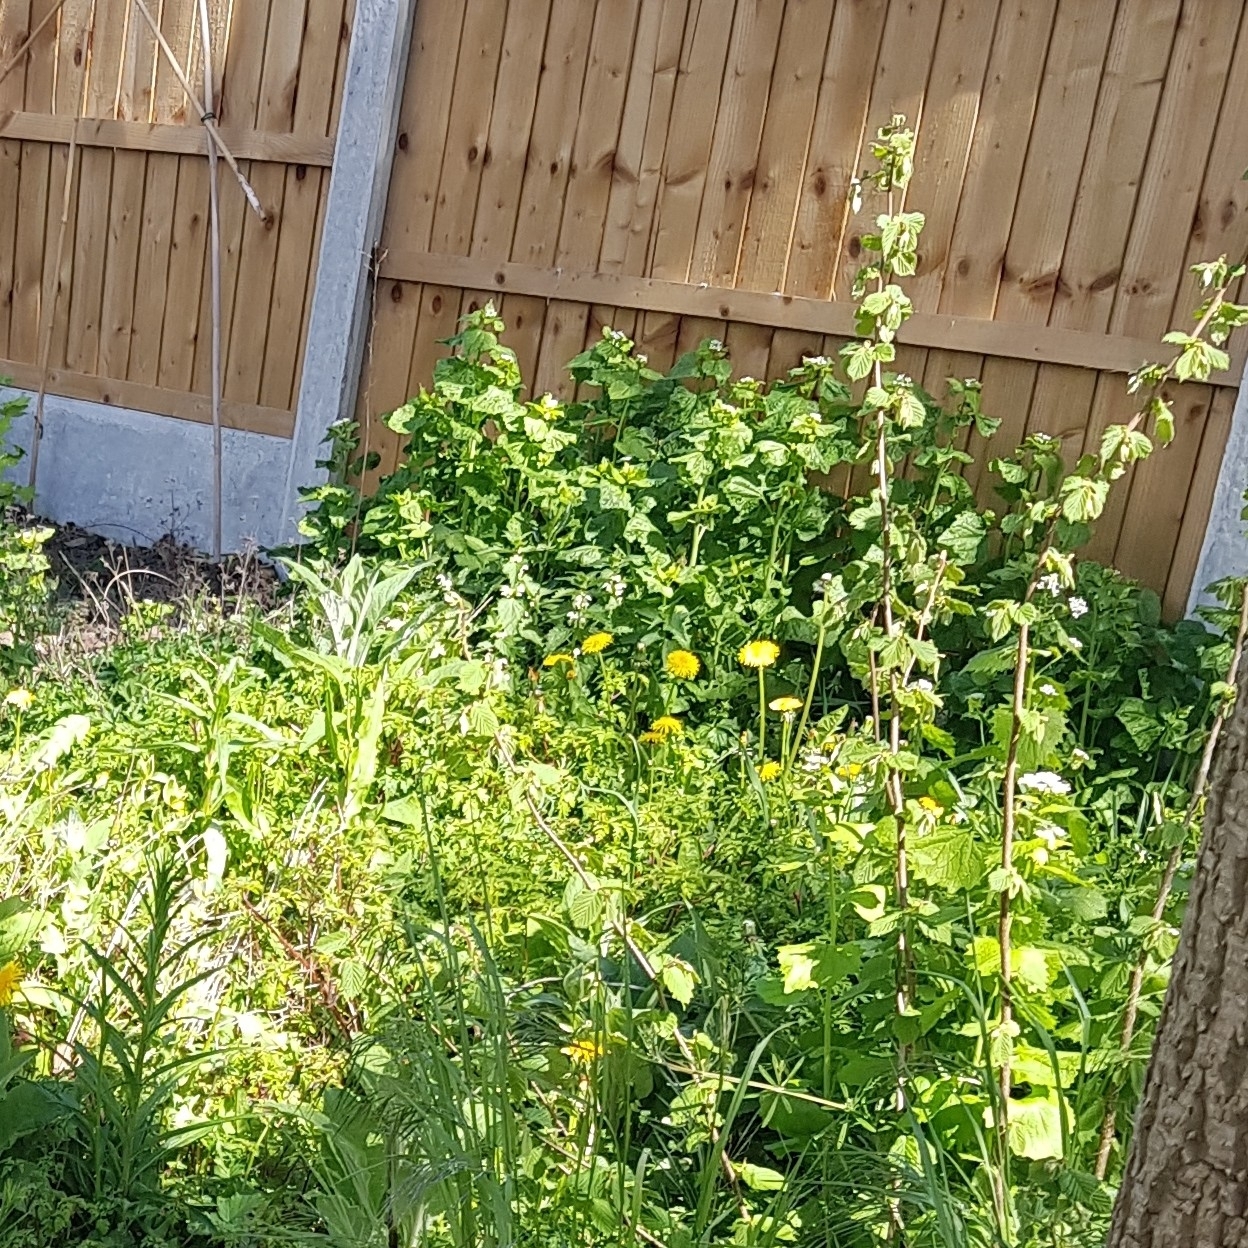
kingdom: Plantae
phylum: Tracheophyta
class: Magnoliopsida
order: Brassicales
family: Brassicaceae
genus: Alliaria
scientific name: Alliaria petiolata
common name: Garlic mustard
